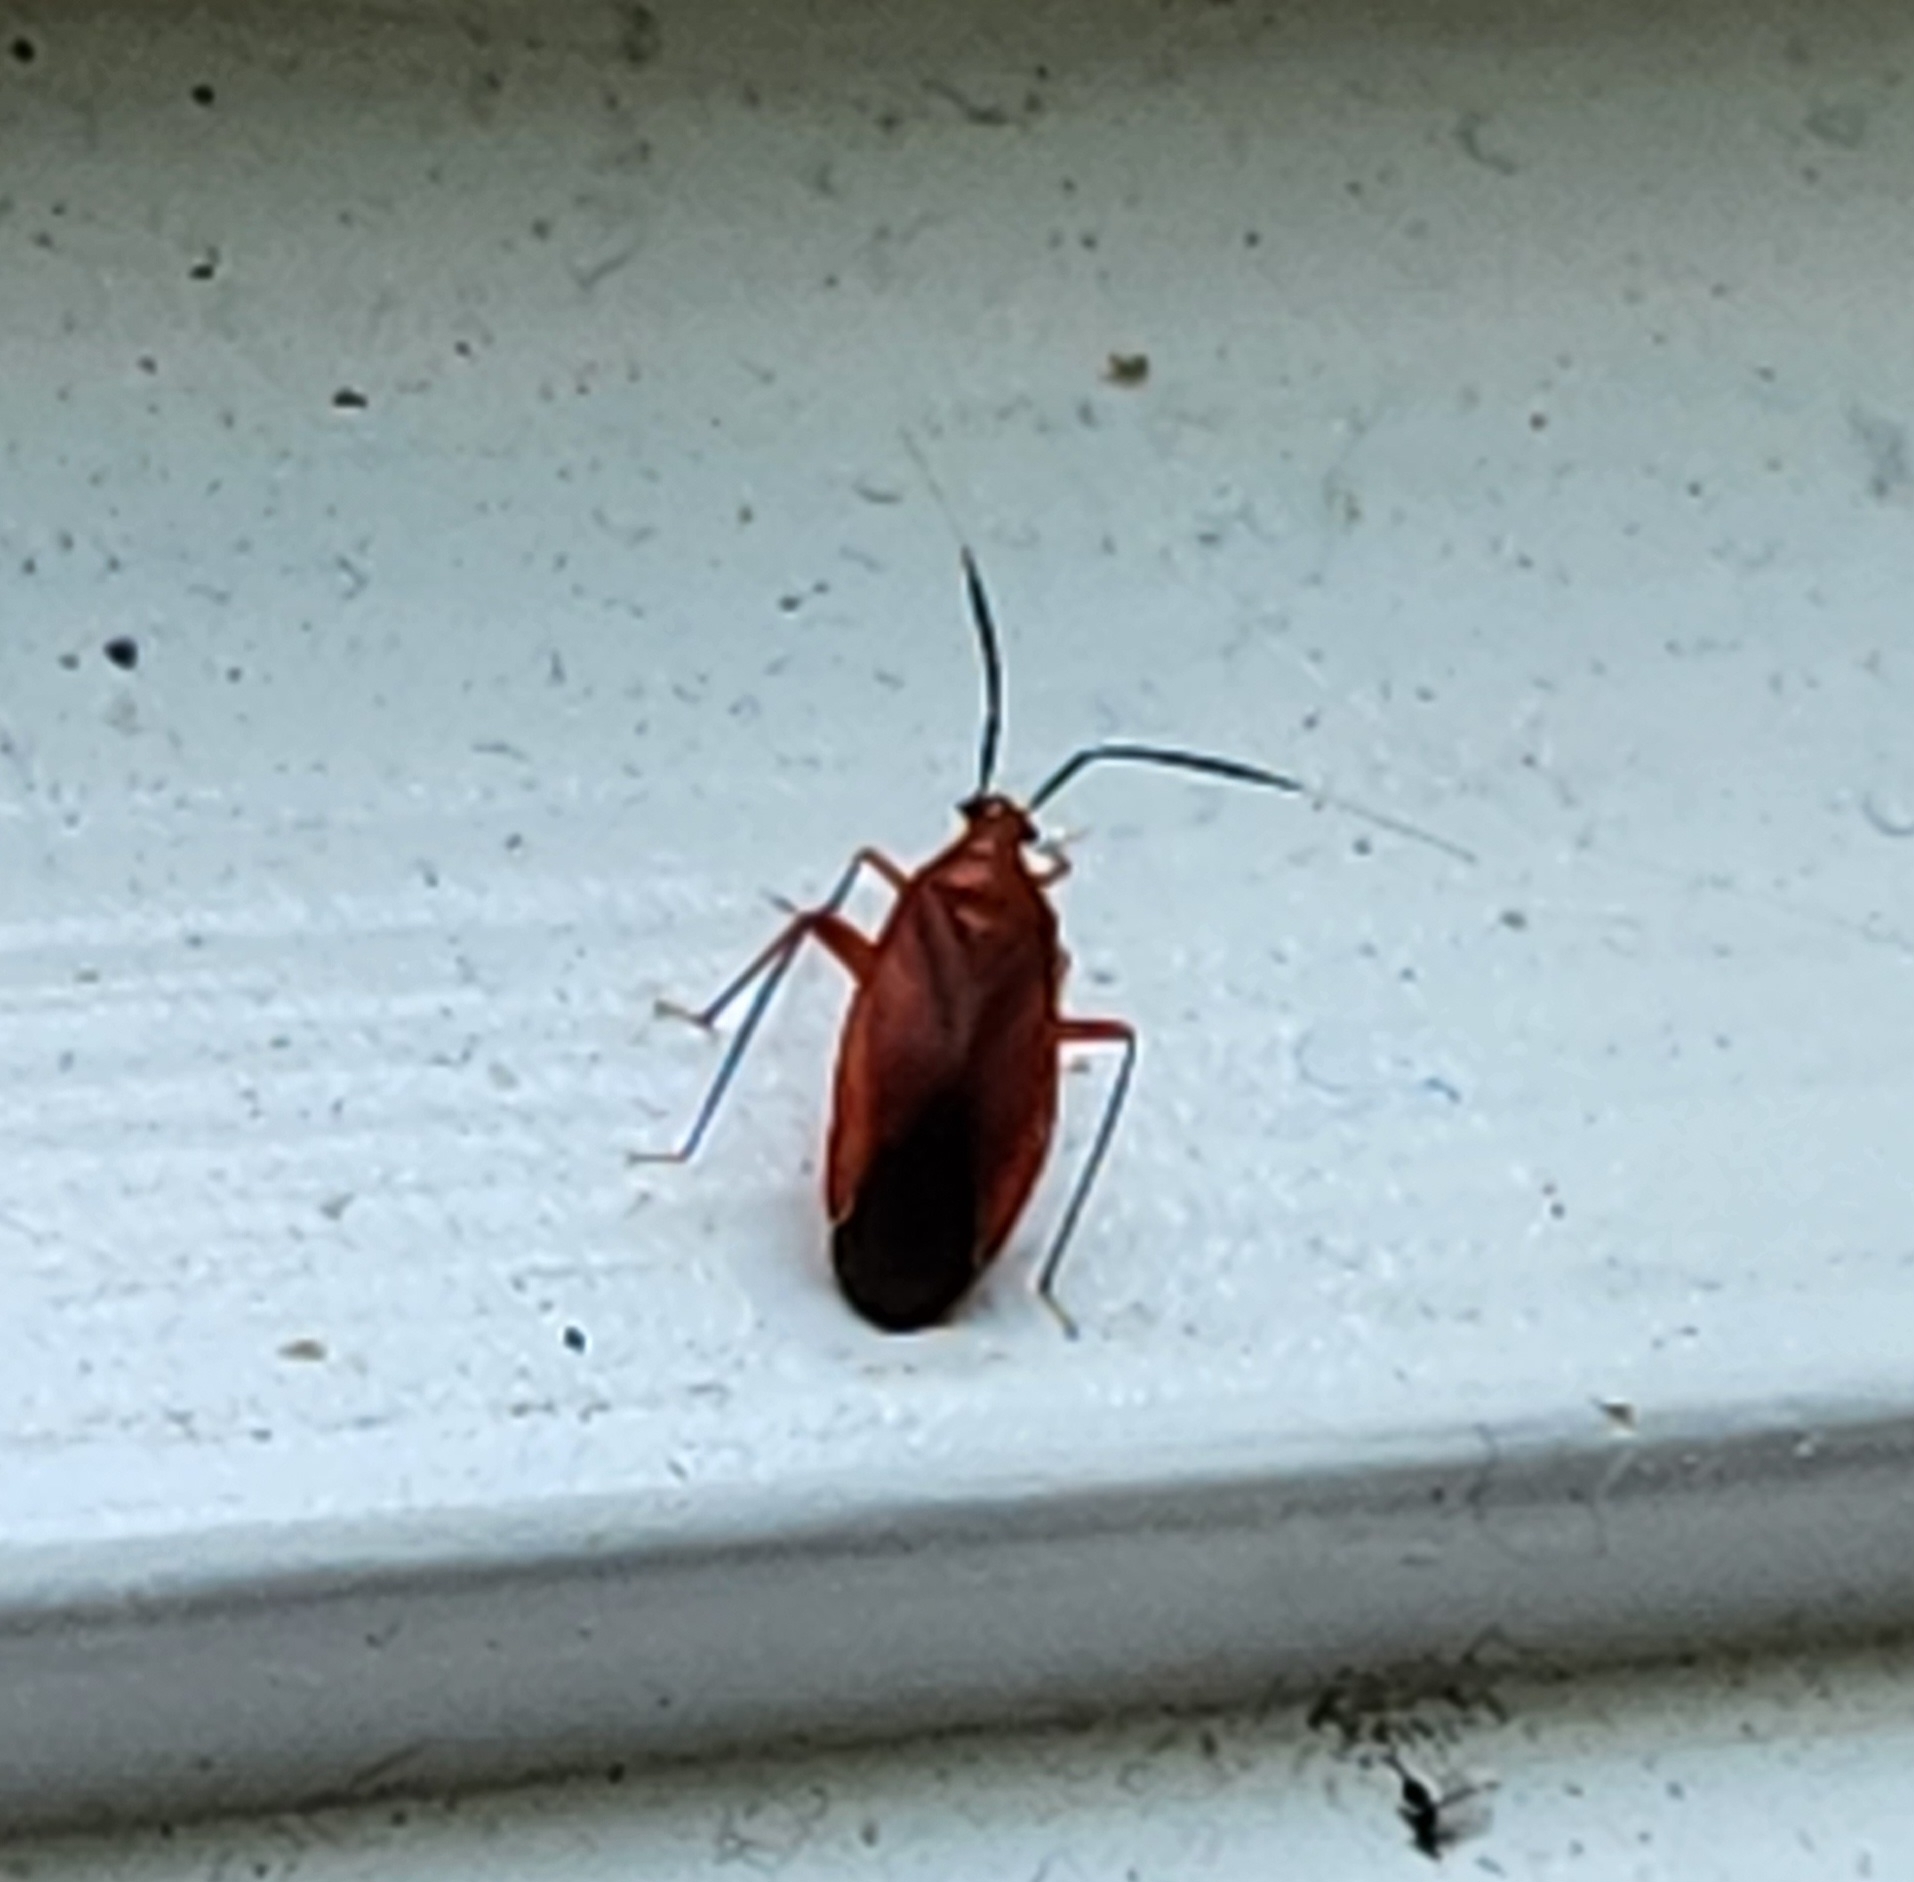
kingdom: Animalia
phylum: Arthropoda
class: Insecta
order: Hemiptera
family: Miridae
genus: Coccobaphes
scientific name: Coccobaphes frontifer
